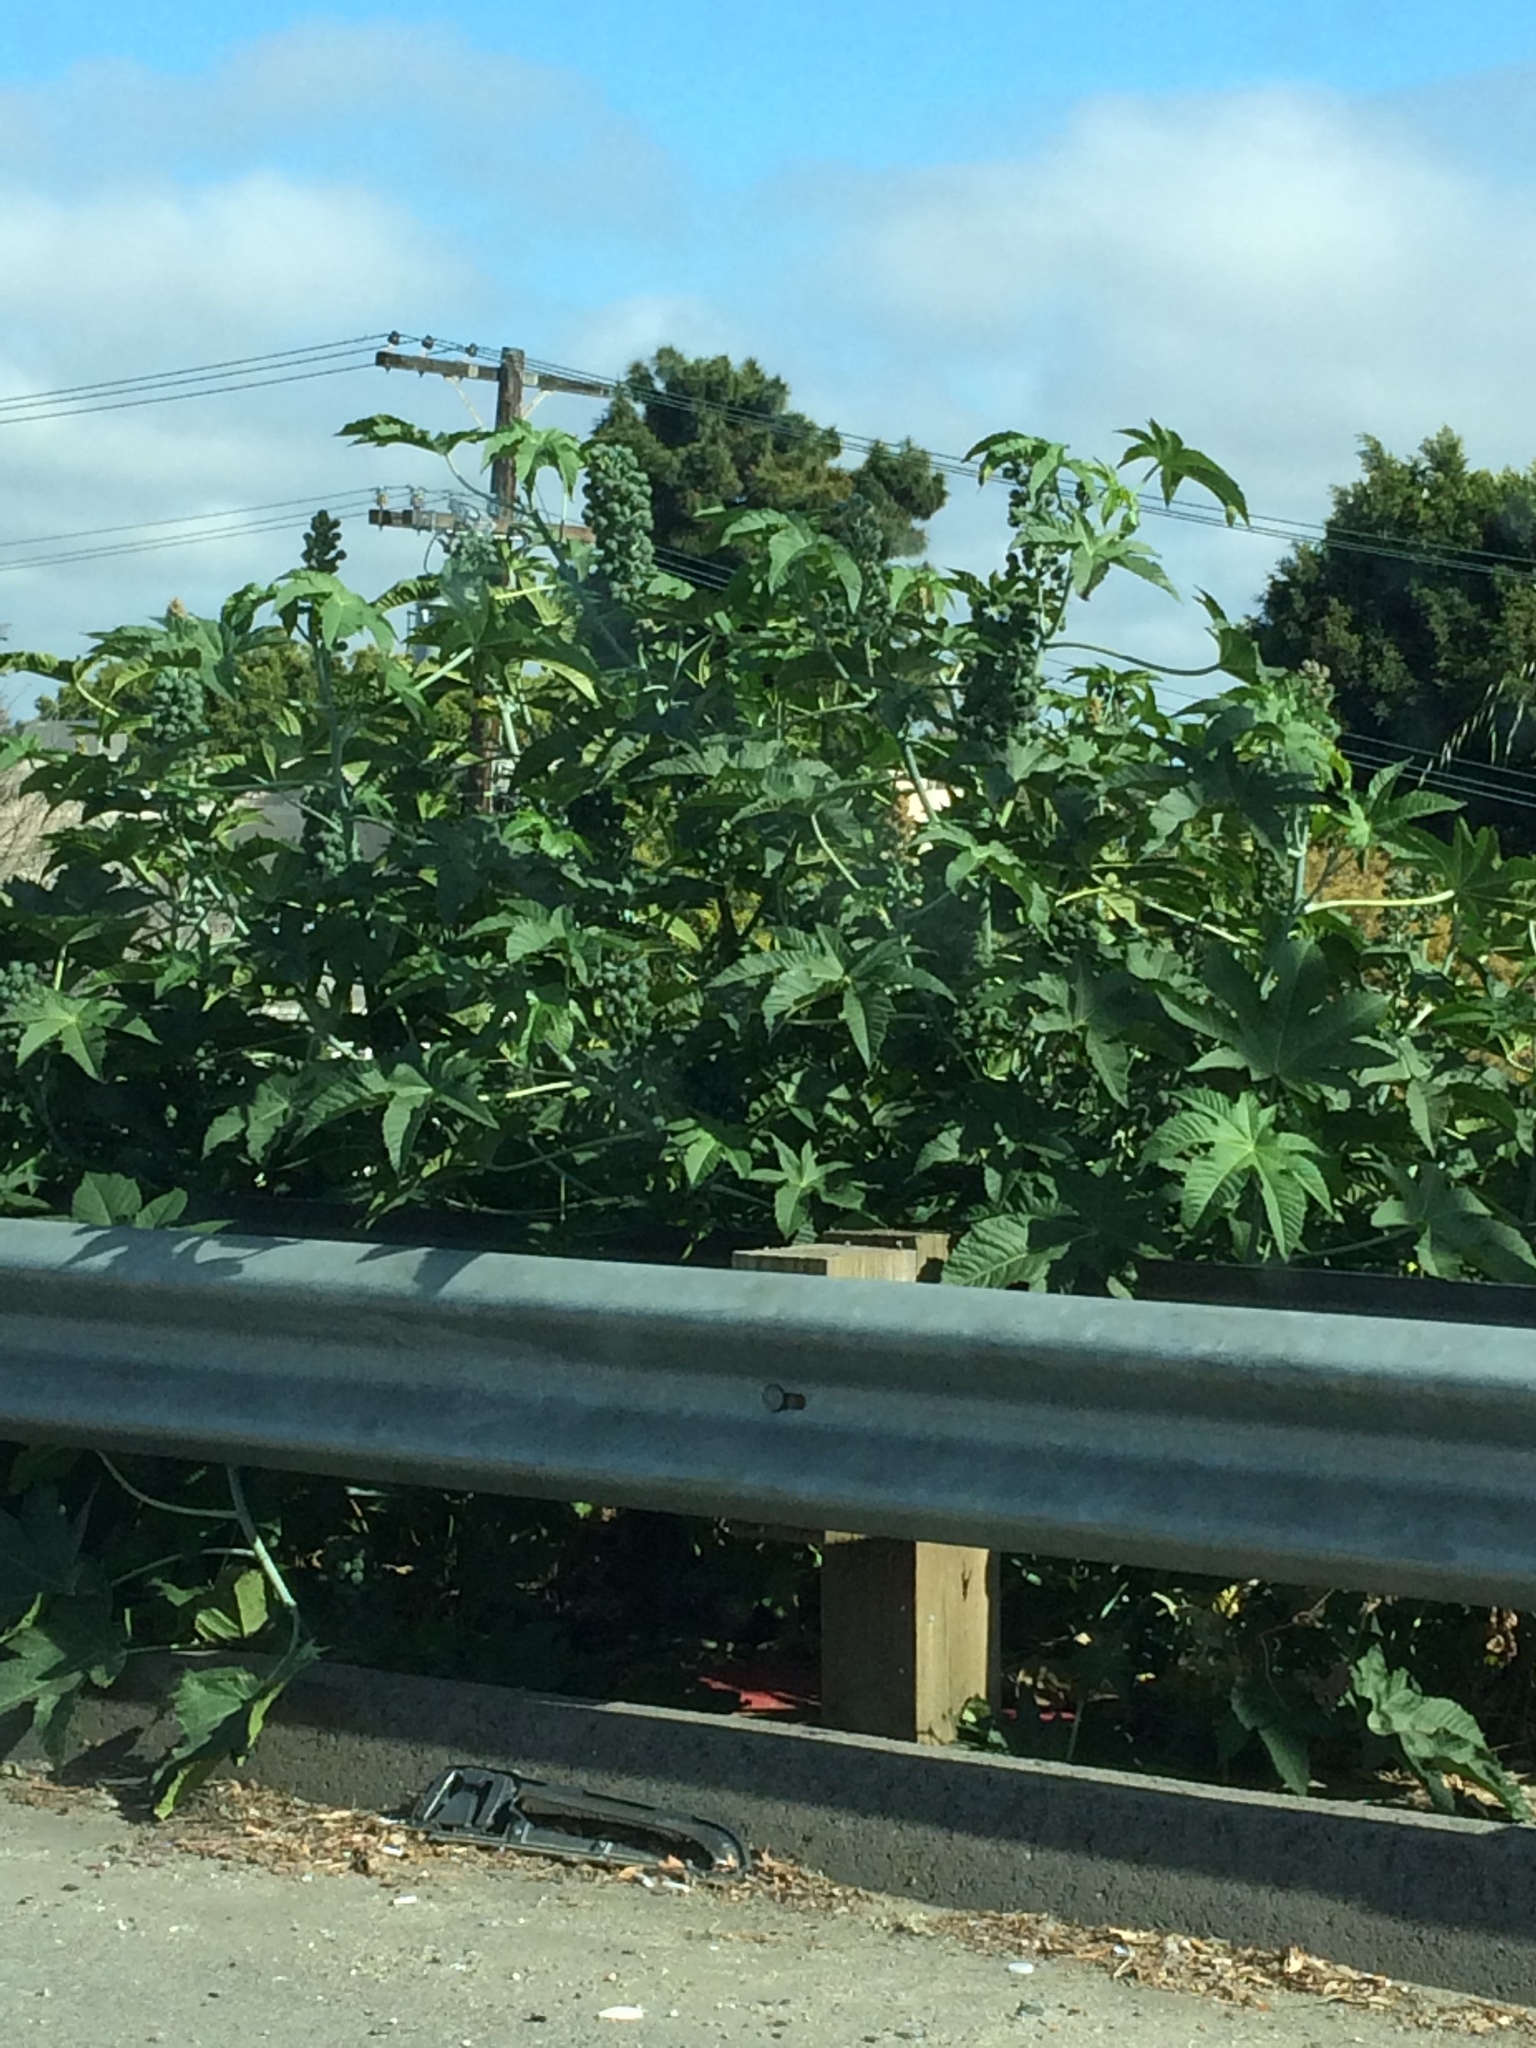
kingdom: Plantae
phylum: Tracheophyta
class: Magnoliopsida
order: Malpighiales
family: Euphorbiaceae
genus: Ricinus
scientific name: Ricinus communis
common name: Castor-oil-plant
